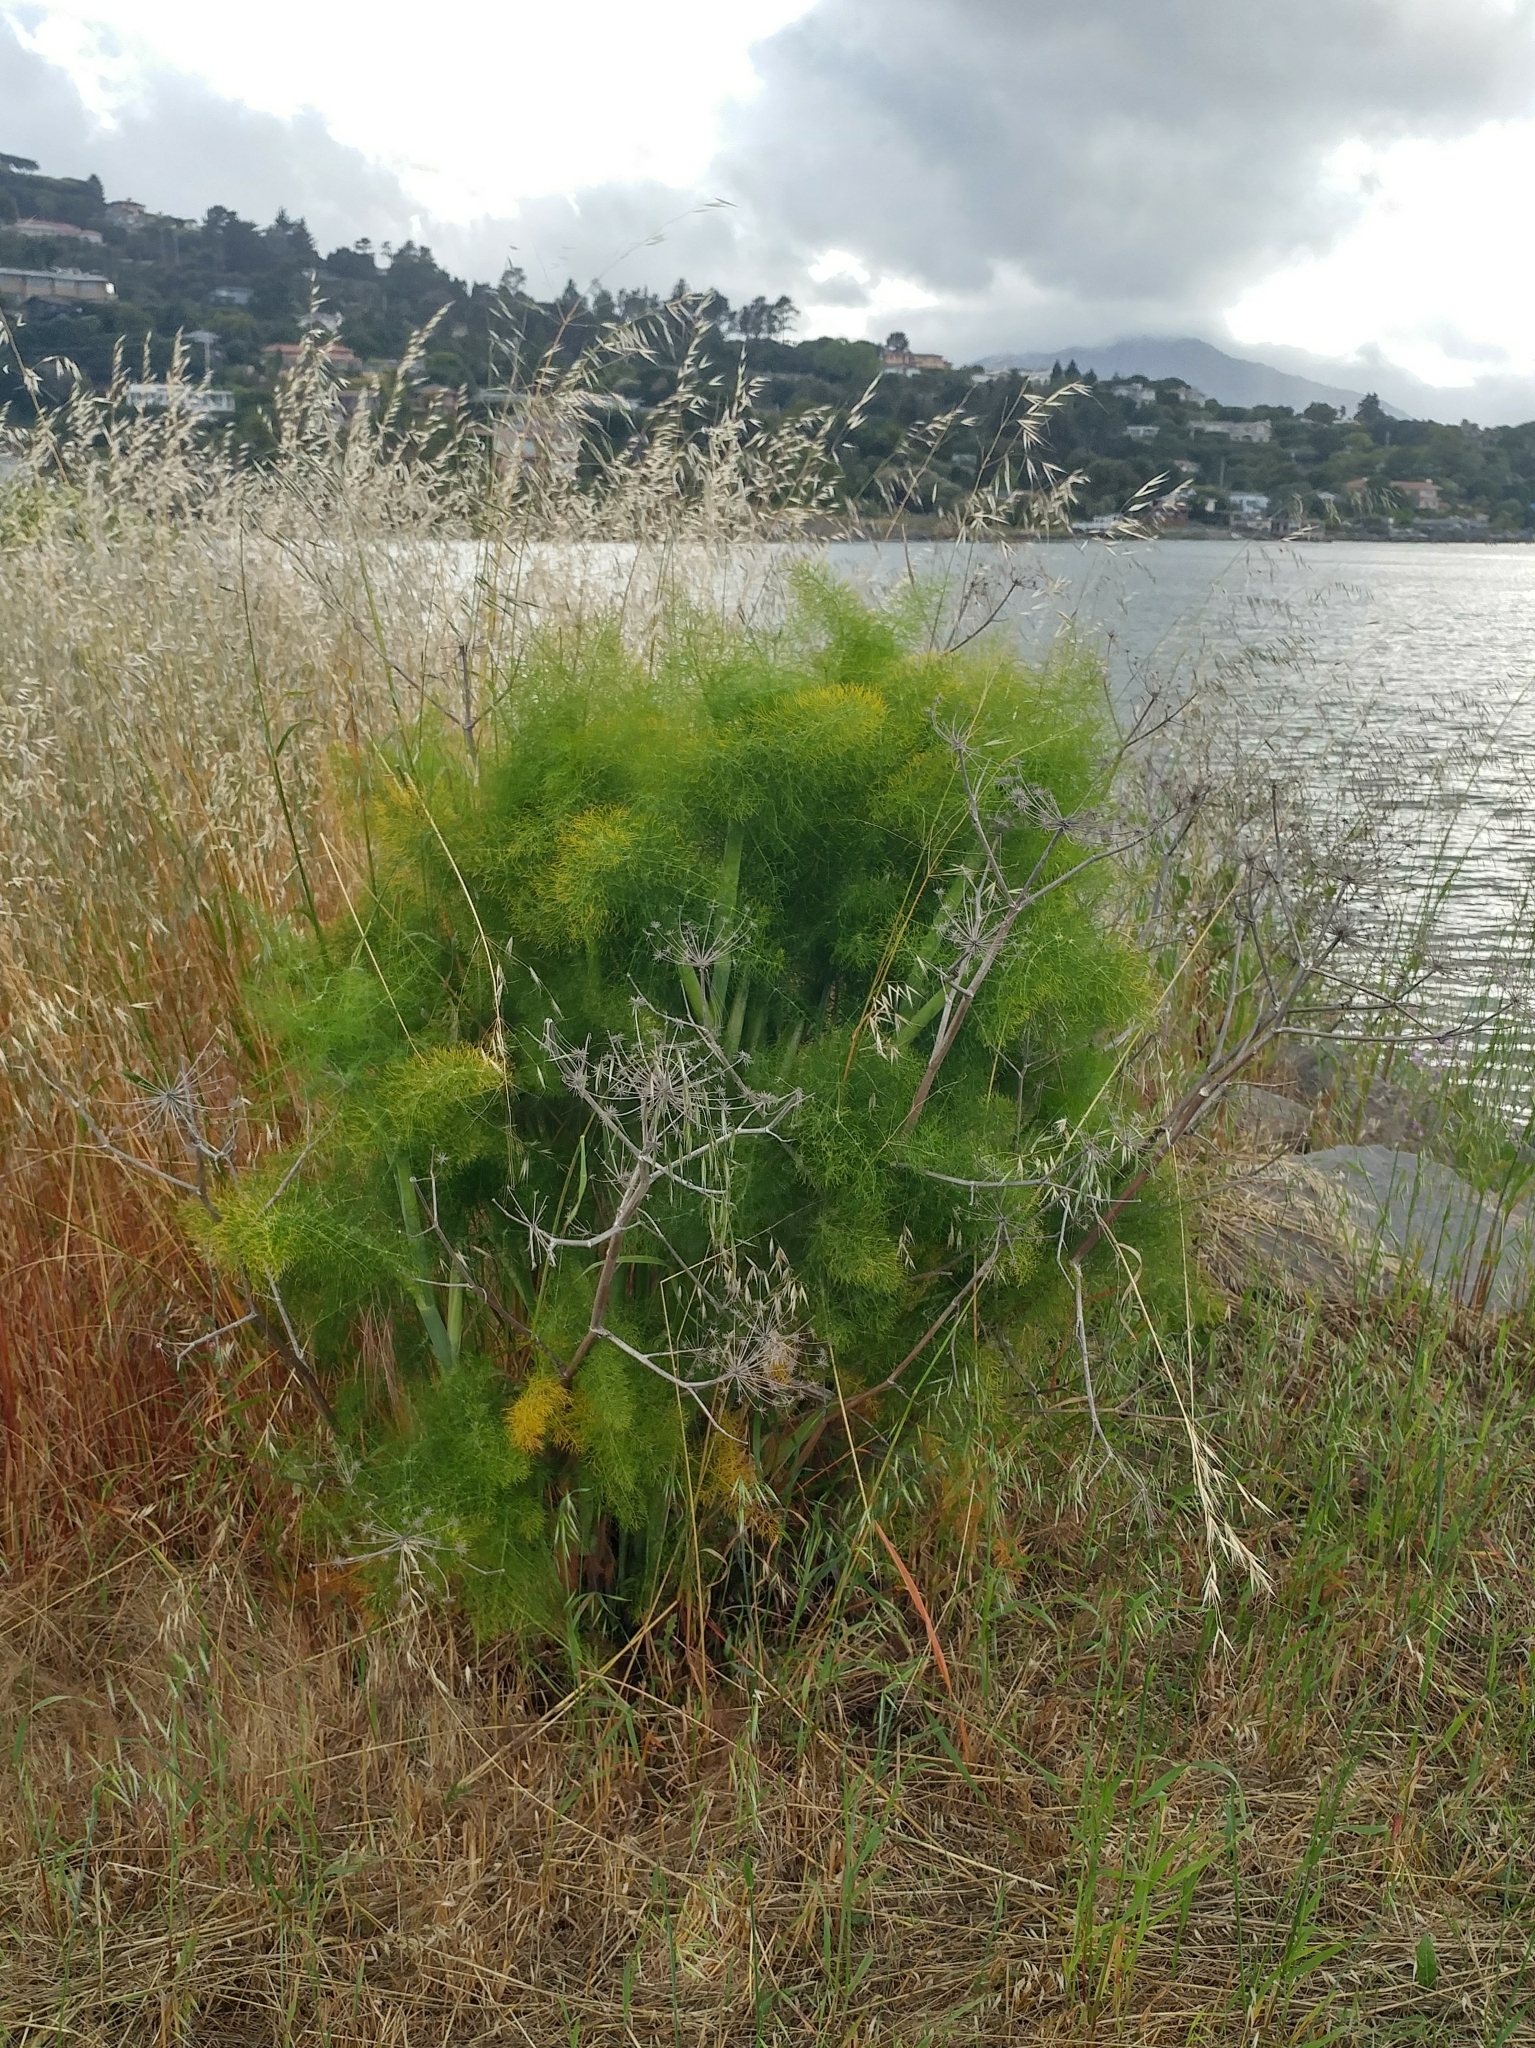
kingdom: Plantae
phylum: Tracheophyta
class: Magnoliopsida
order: Apiales
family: Apiaceae
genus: Foeniculum
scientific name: Foeniculum vulgare
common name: Fennel
